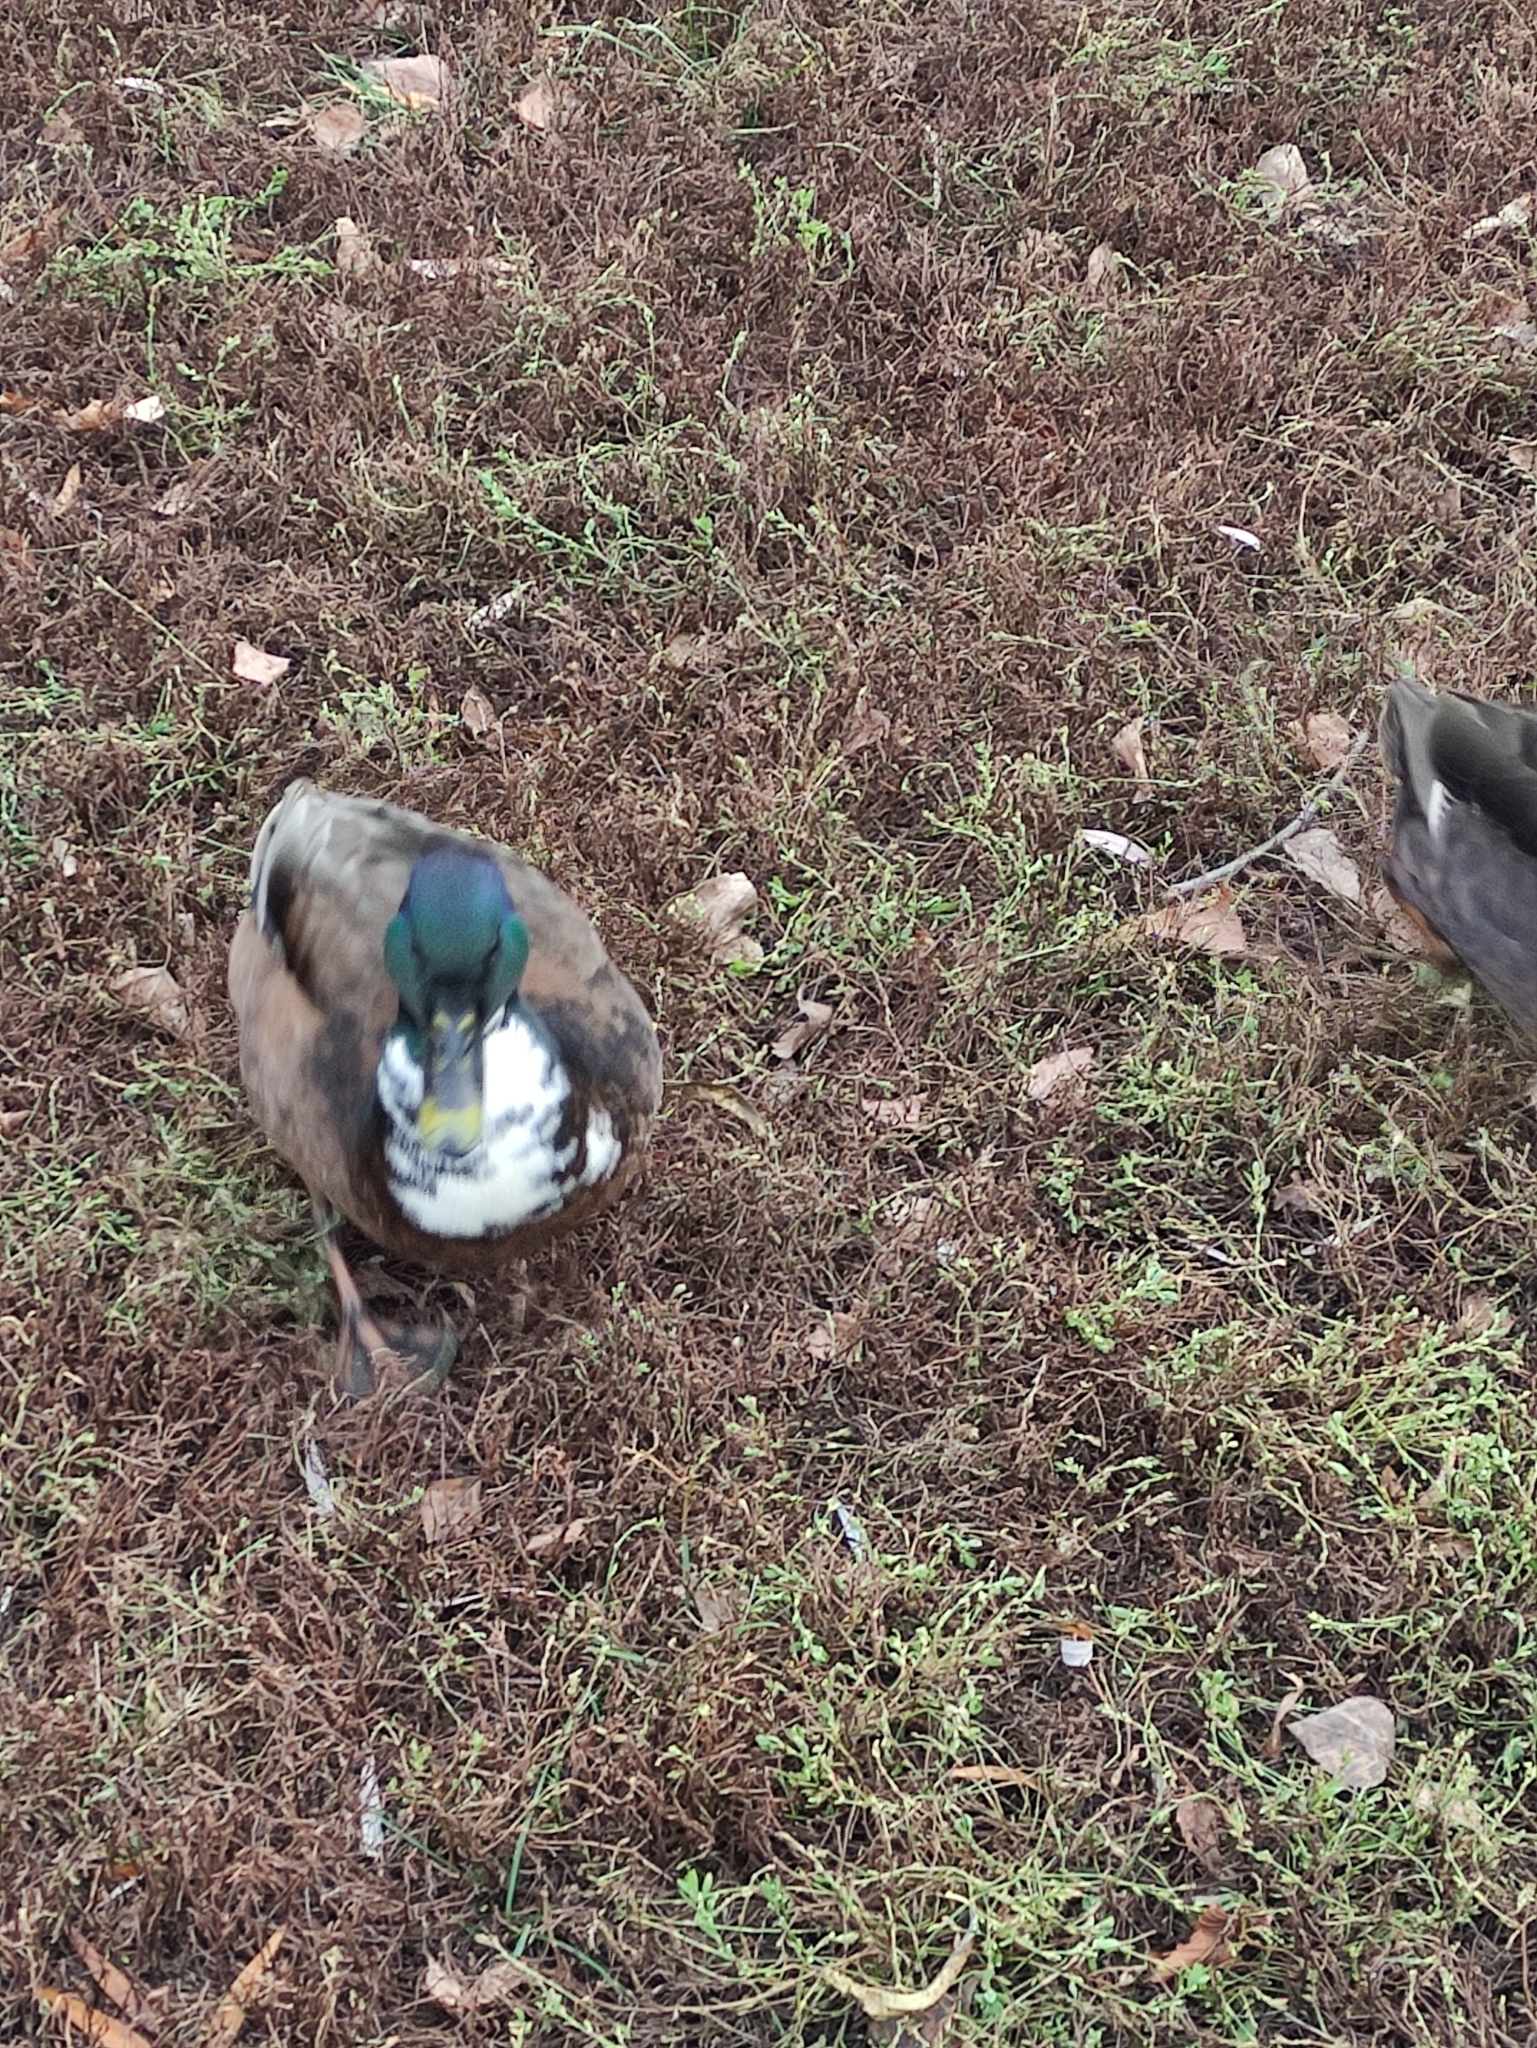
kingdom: Animalia
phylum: Chordata
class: Aves
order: Anseriformes
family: Anatidae
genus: Anas
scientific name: Anas platyrhynchos
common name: Mallard
